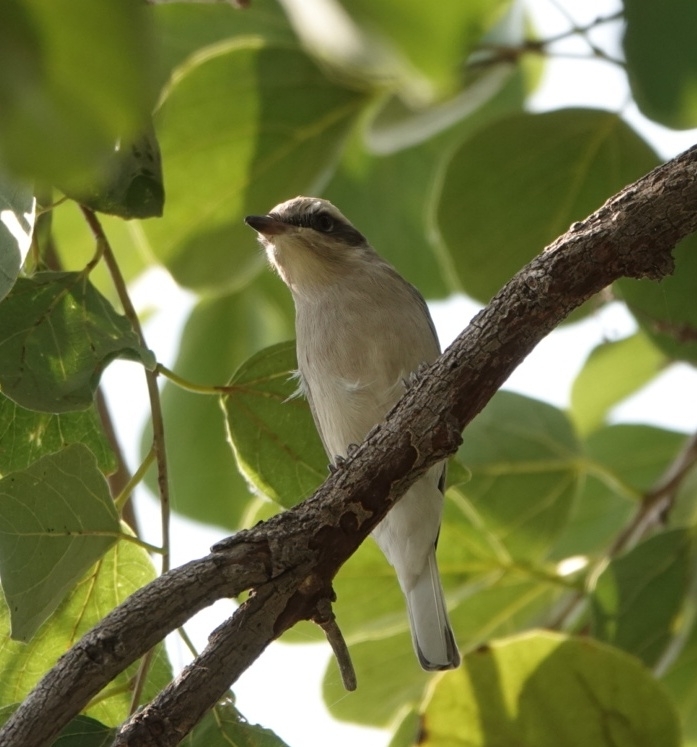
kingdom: Animalia
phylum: Chordata
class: Aves
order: Passeriformes
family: Tephrodornithidae
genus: Tephrodornis
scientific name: Tephrodornis pondicerianus
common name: Common woodshrike
